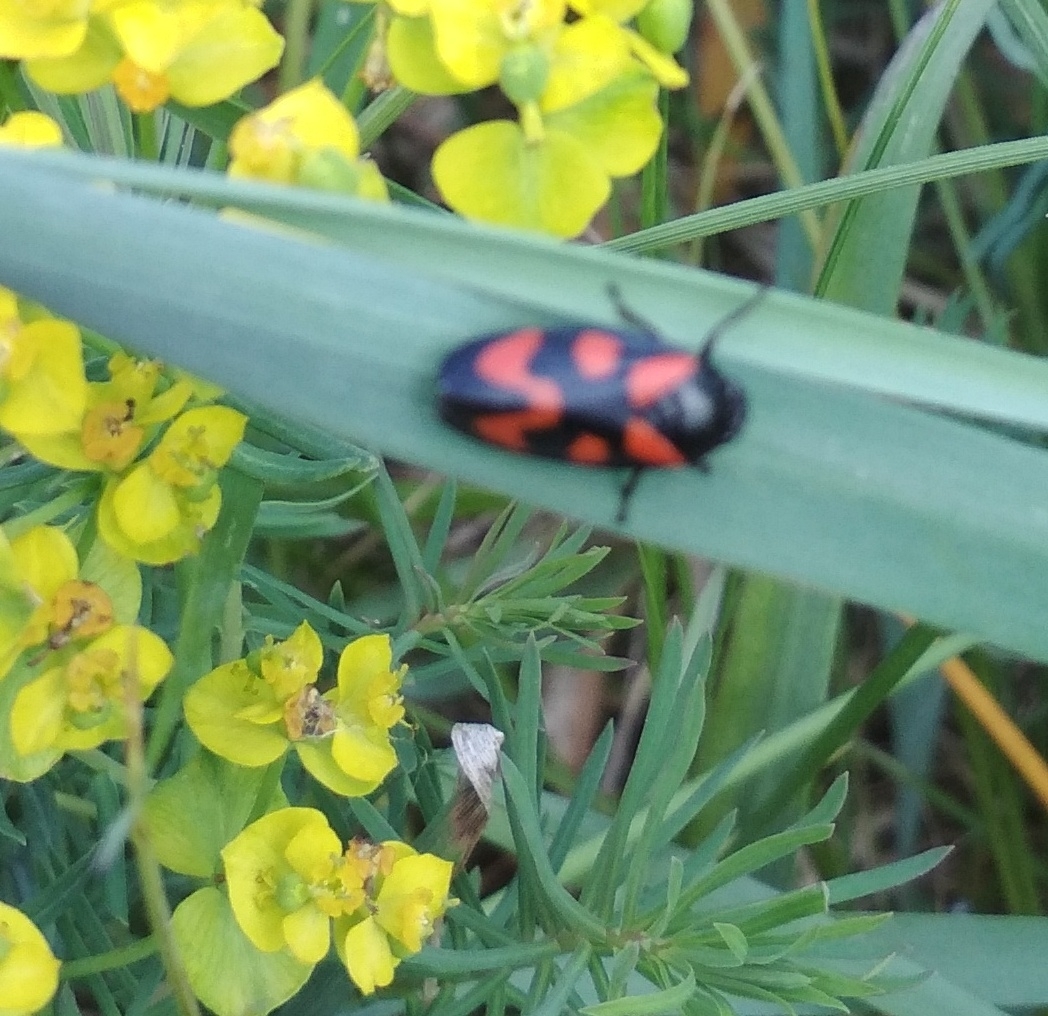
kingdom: Animalia
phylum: Arthropoda
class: Insecta
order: Hemiptera
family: Cercopidae
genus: Cercopis
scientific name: Cercopis vulnerata
